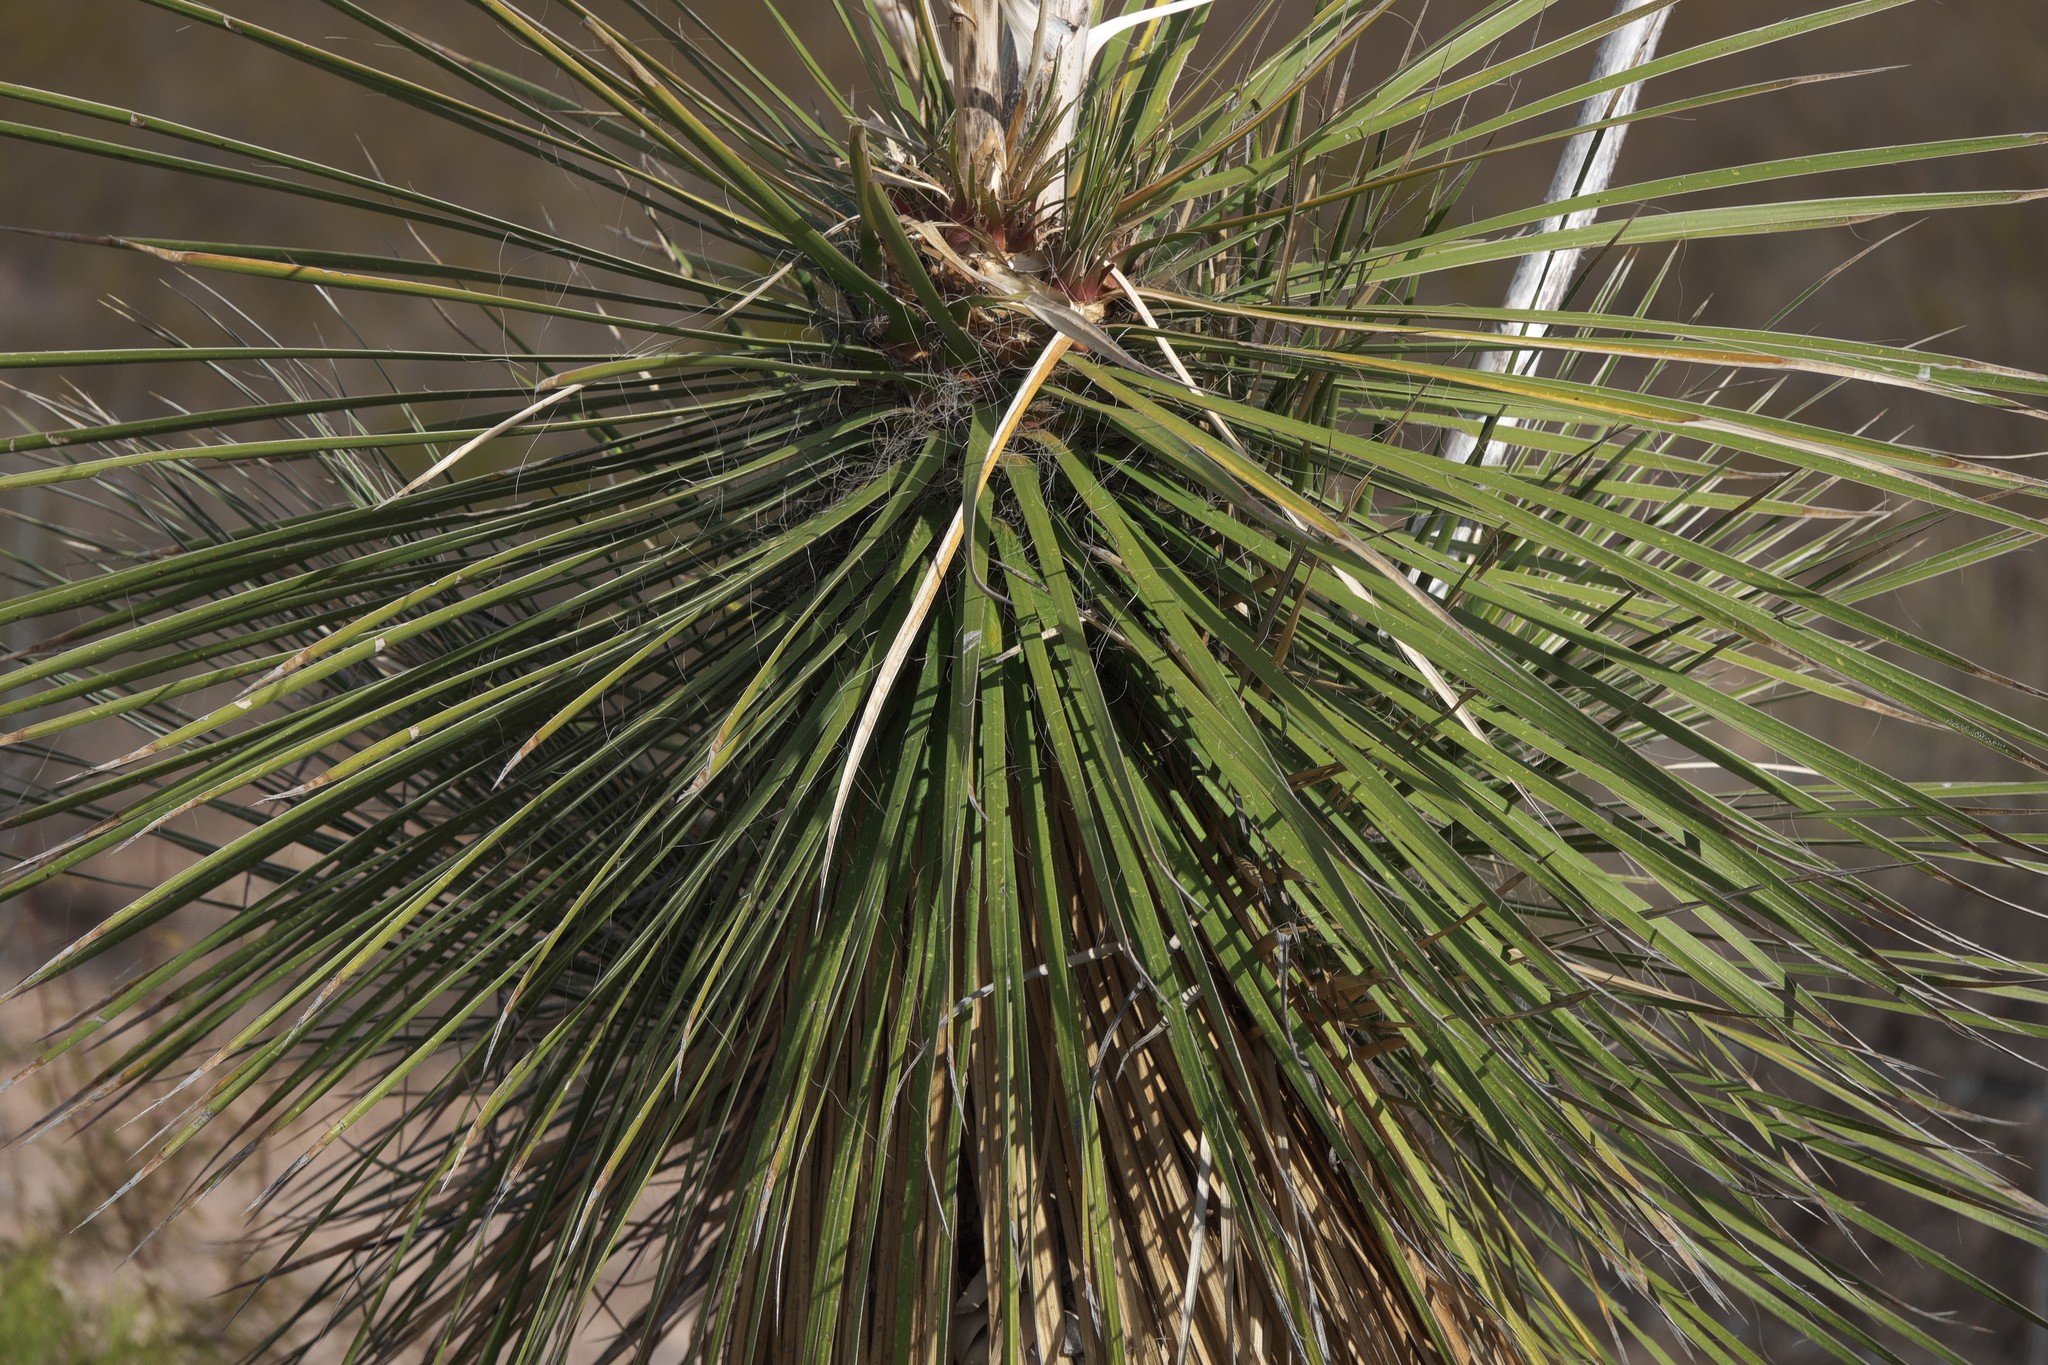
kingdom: Plantae
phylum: Tracheophyta
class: Liliopsida
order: Asparagales
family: Asparagaceae
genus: Yucca
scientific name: Yucca elata
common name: Palmella
